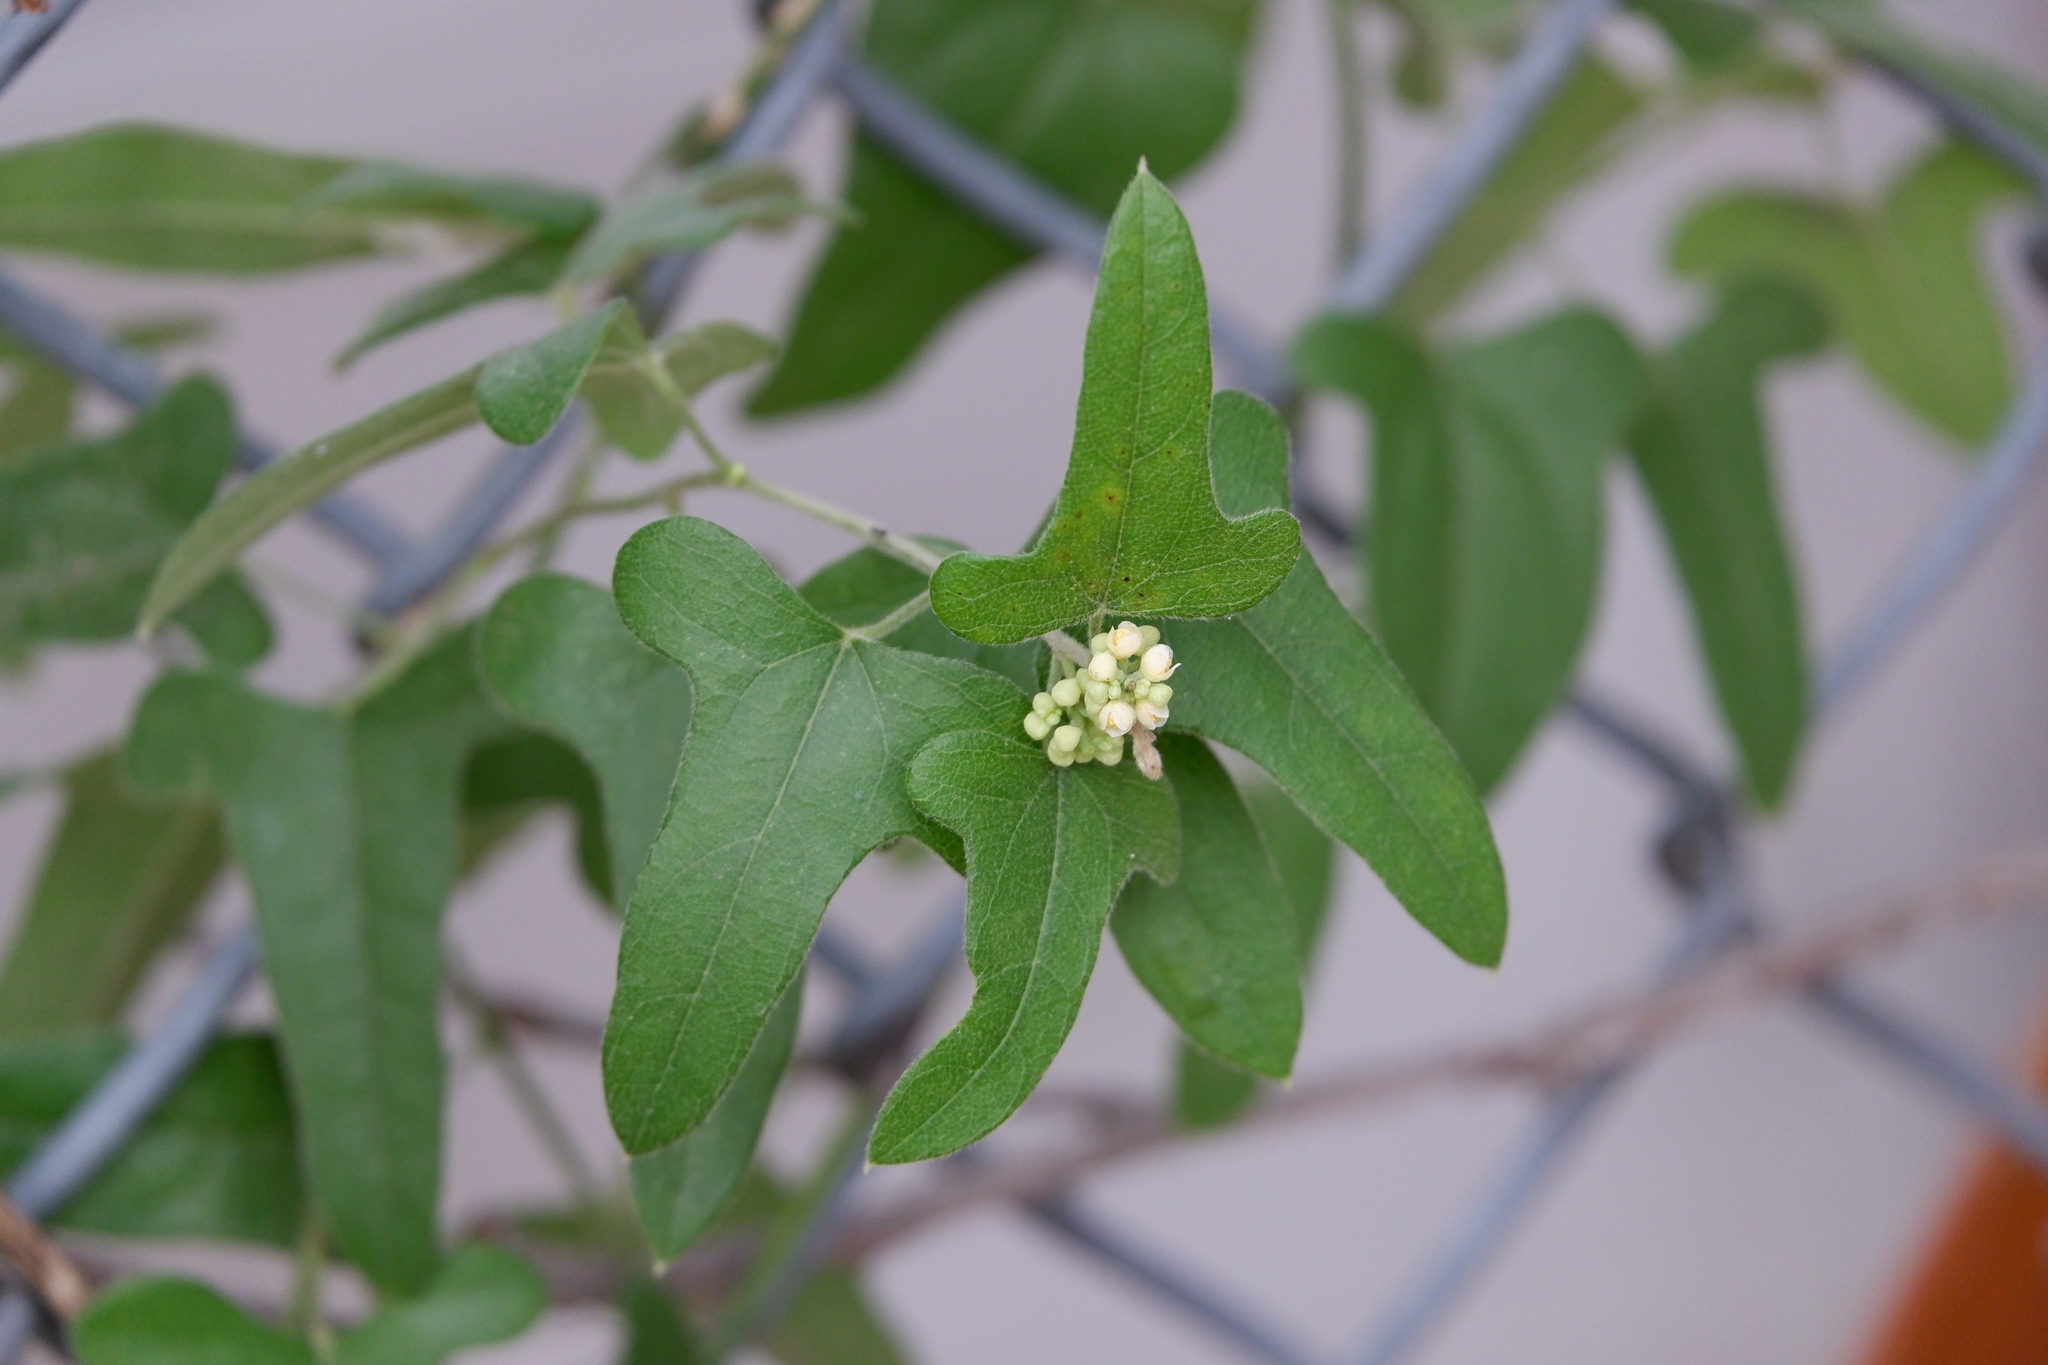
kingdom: Plantae
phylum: Tracheophyta
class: Magnoliopsida
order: Ranunculales
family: Menispermaceae
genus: Cocculus
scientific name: Cocculus carolinus
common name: Carolina moonseed
